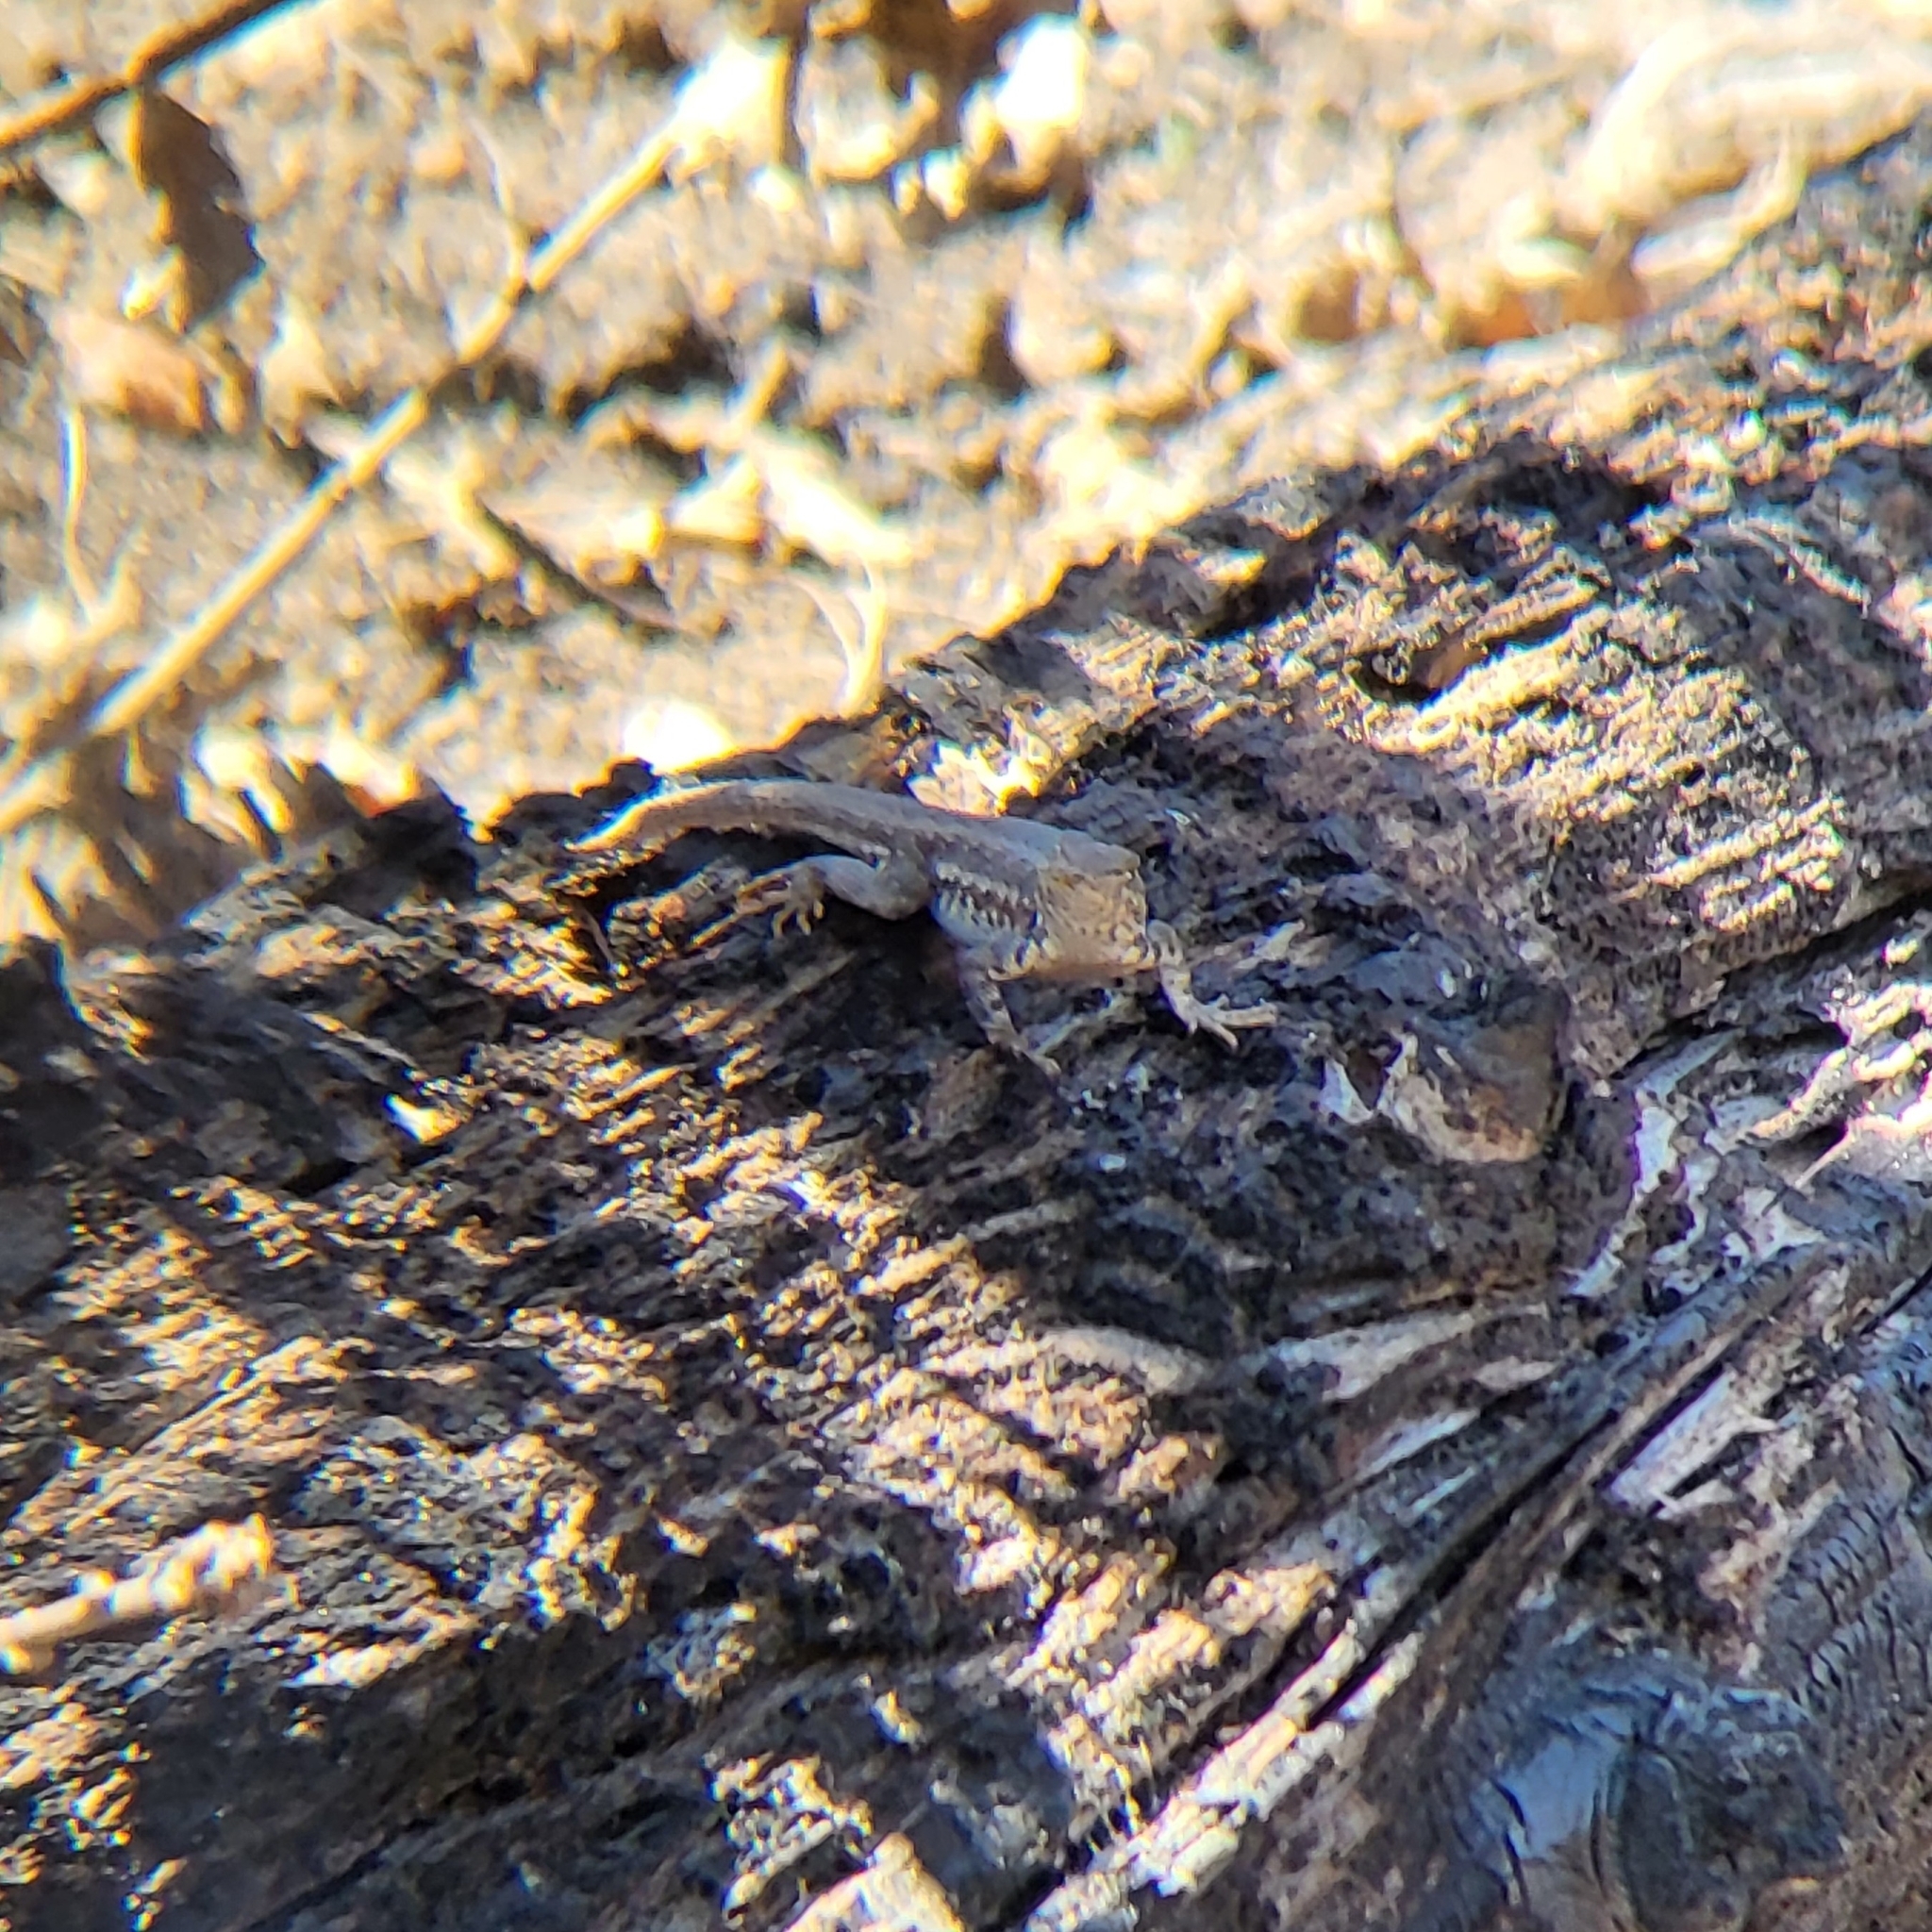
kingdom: Animalia
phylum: Chordata
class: Squamata
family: Phrynosomatidae
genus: Sceloporus
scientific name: Sceloporus graciosus
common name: Sagebrush lizard
